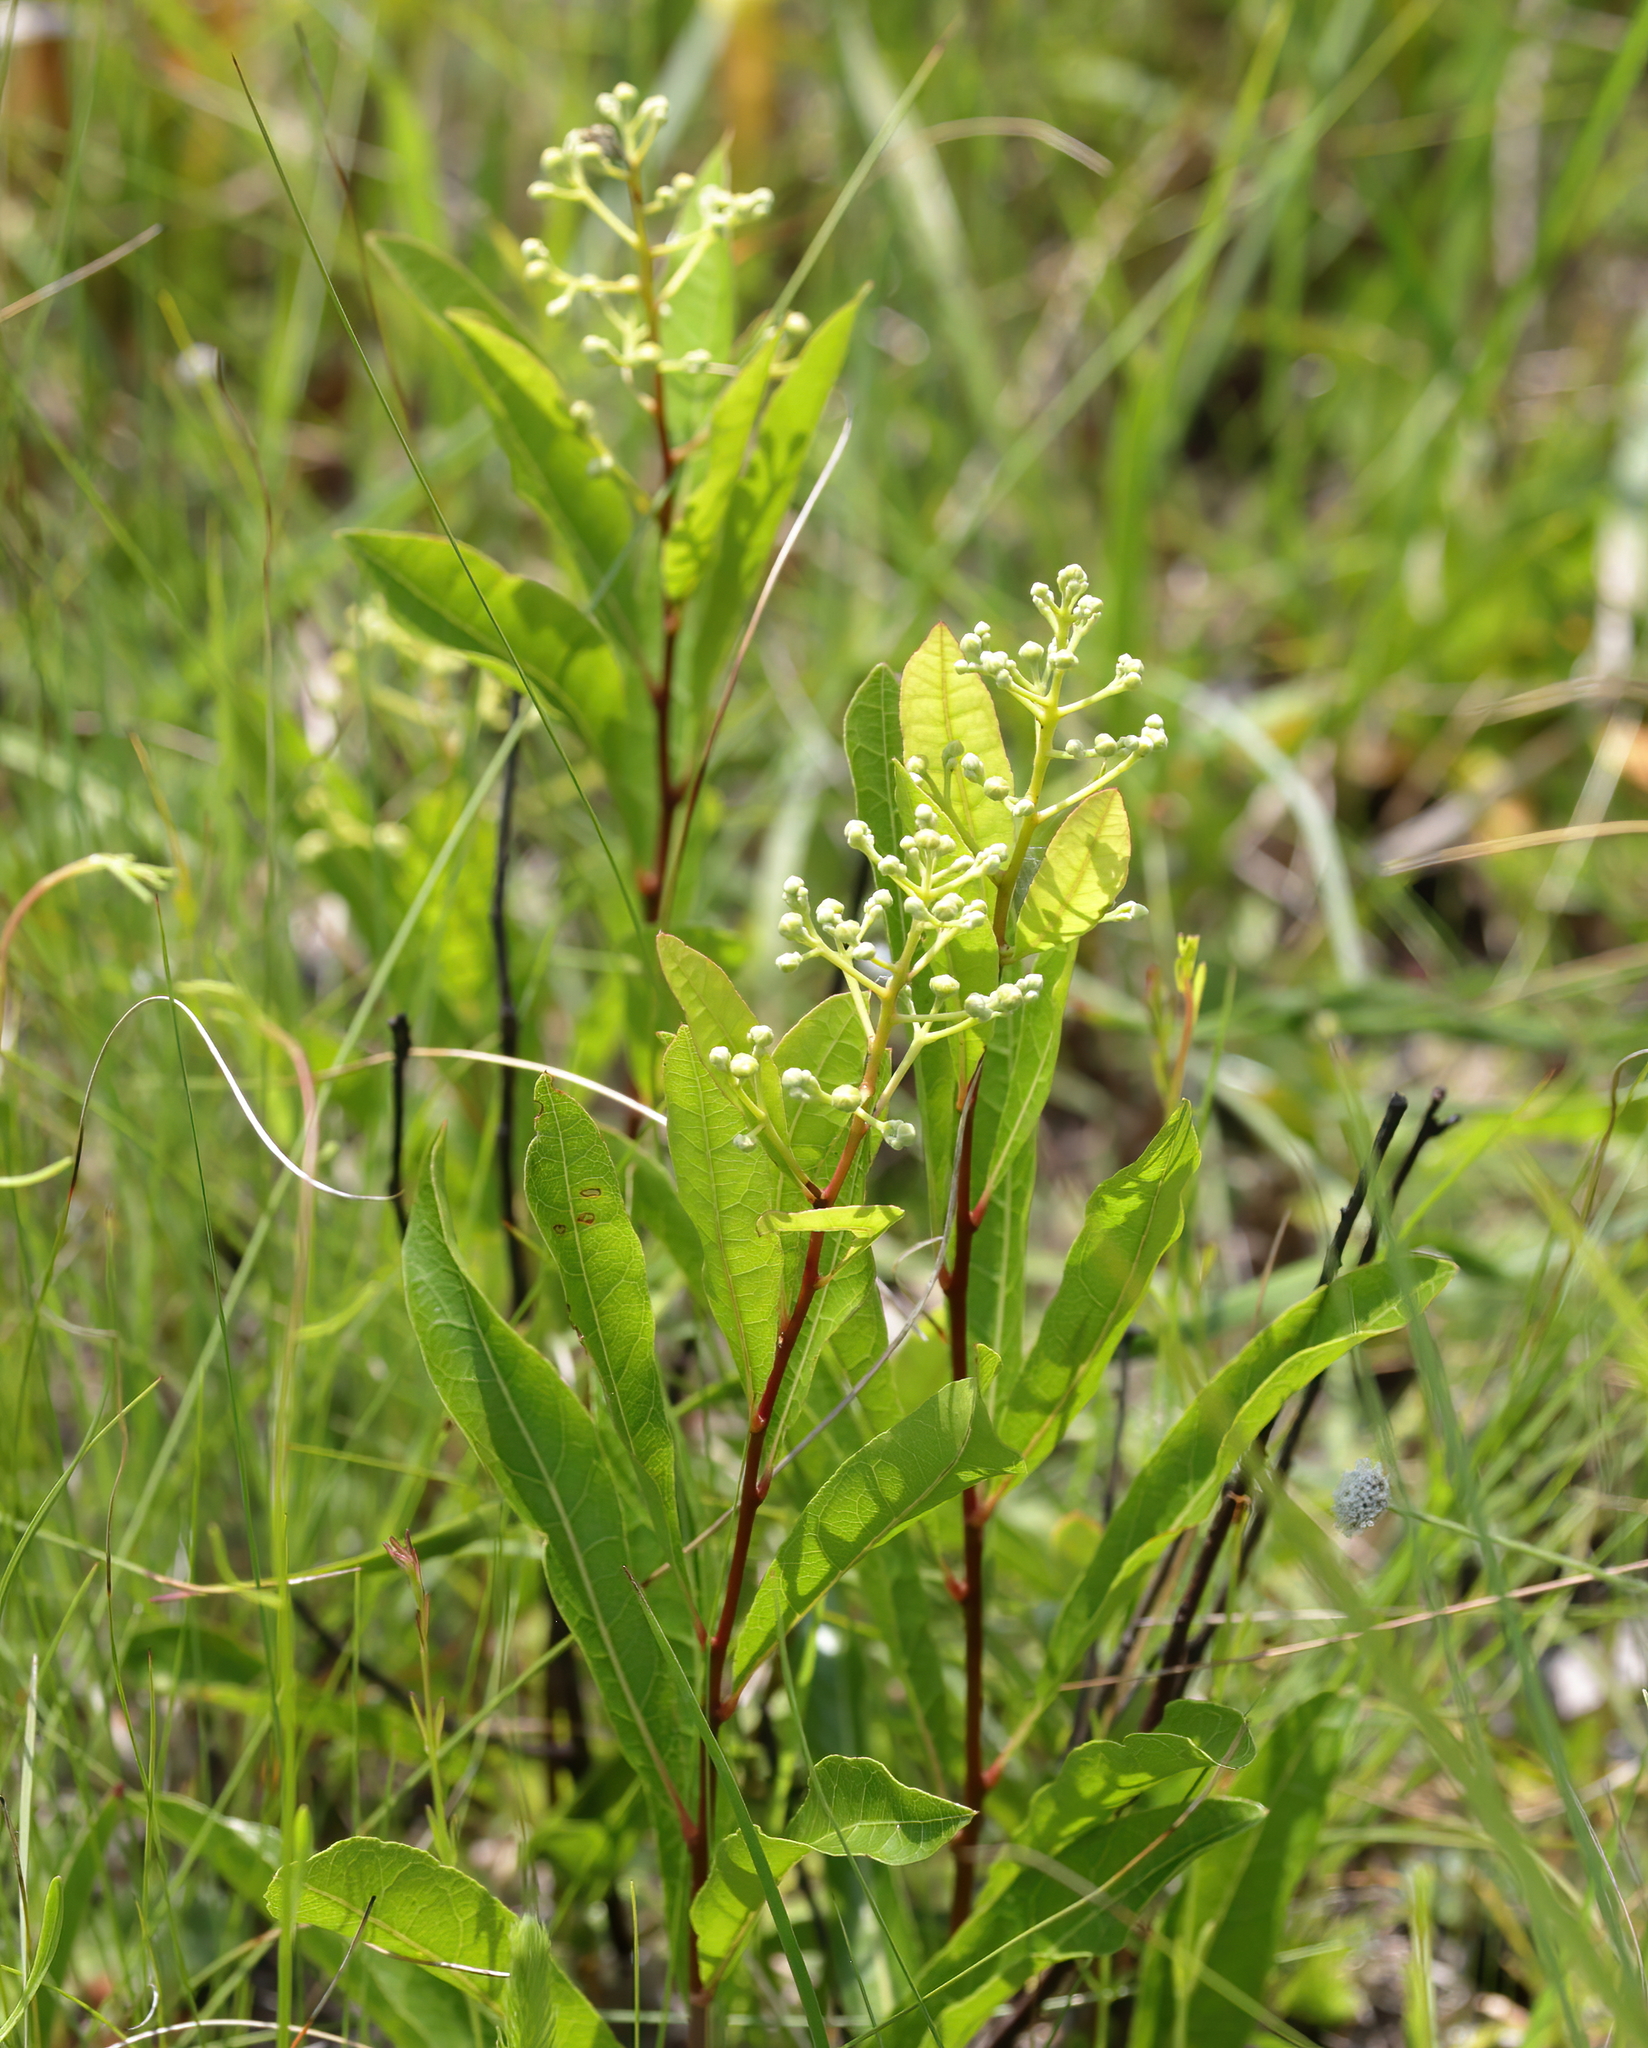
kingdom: Plantae
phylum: Tracheophyta
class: Magnoliopsida
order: Malpighiales
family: Chrysobalanaceae
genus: Geobalanus
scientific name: Geobalanus oblongifolius
